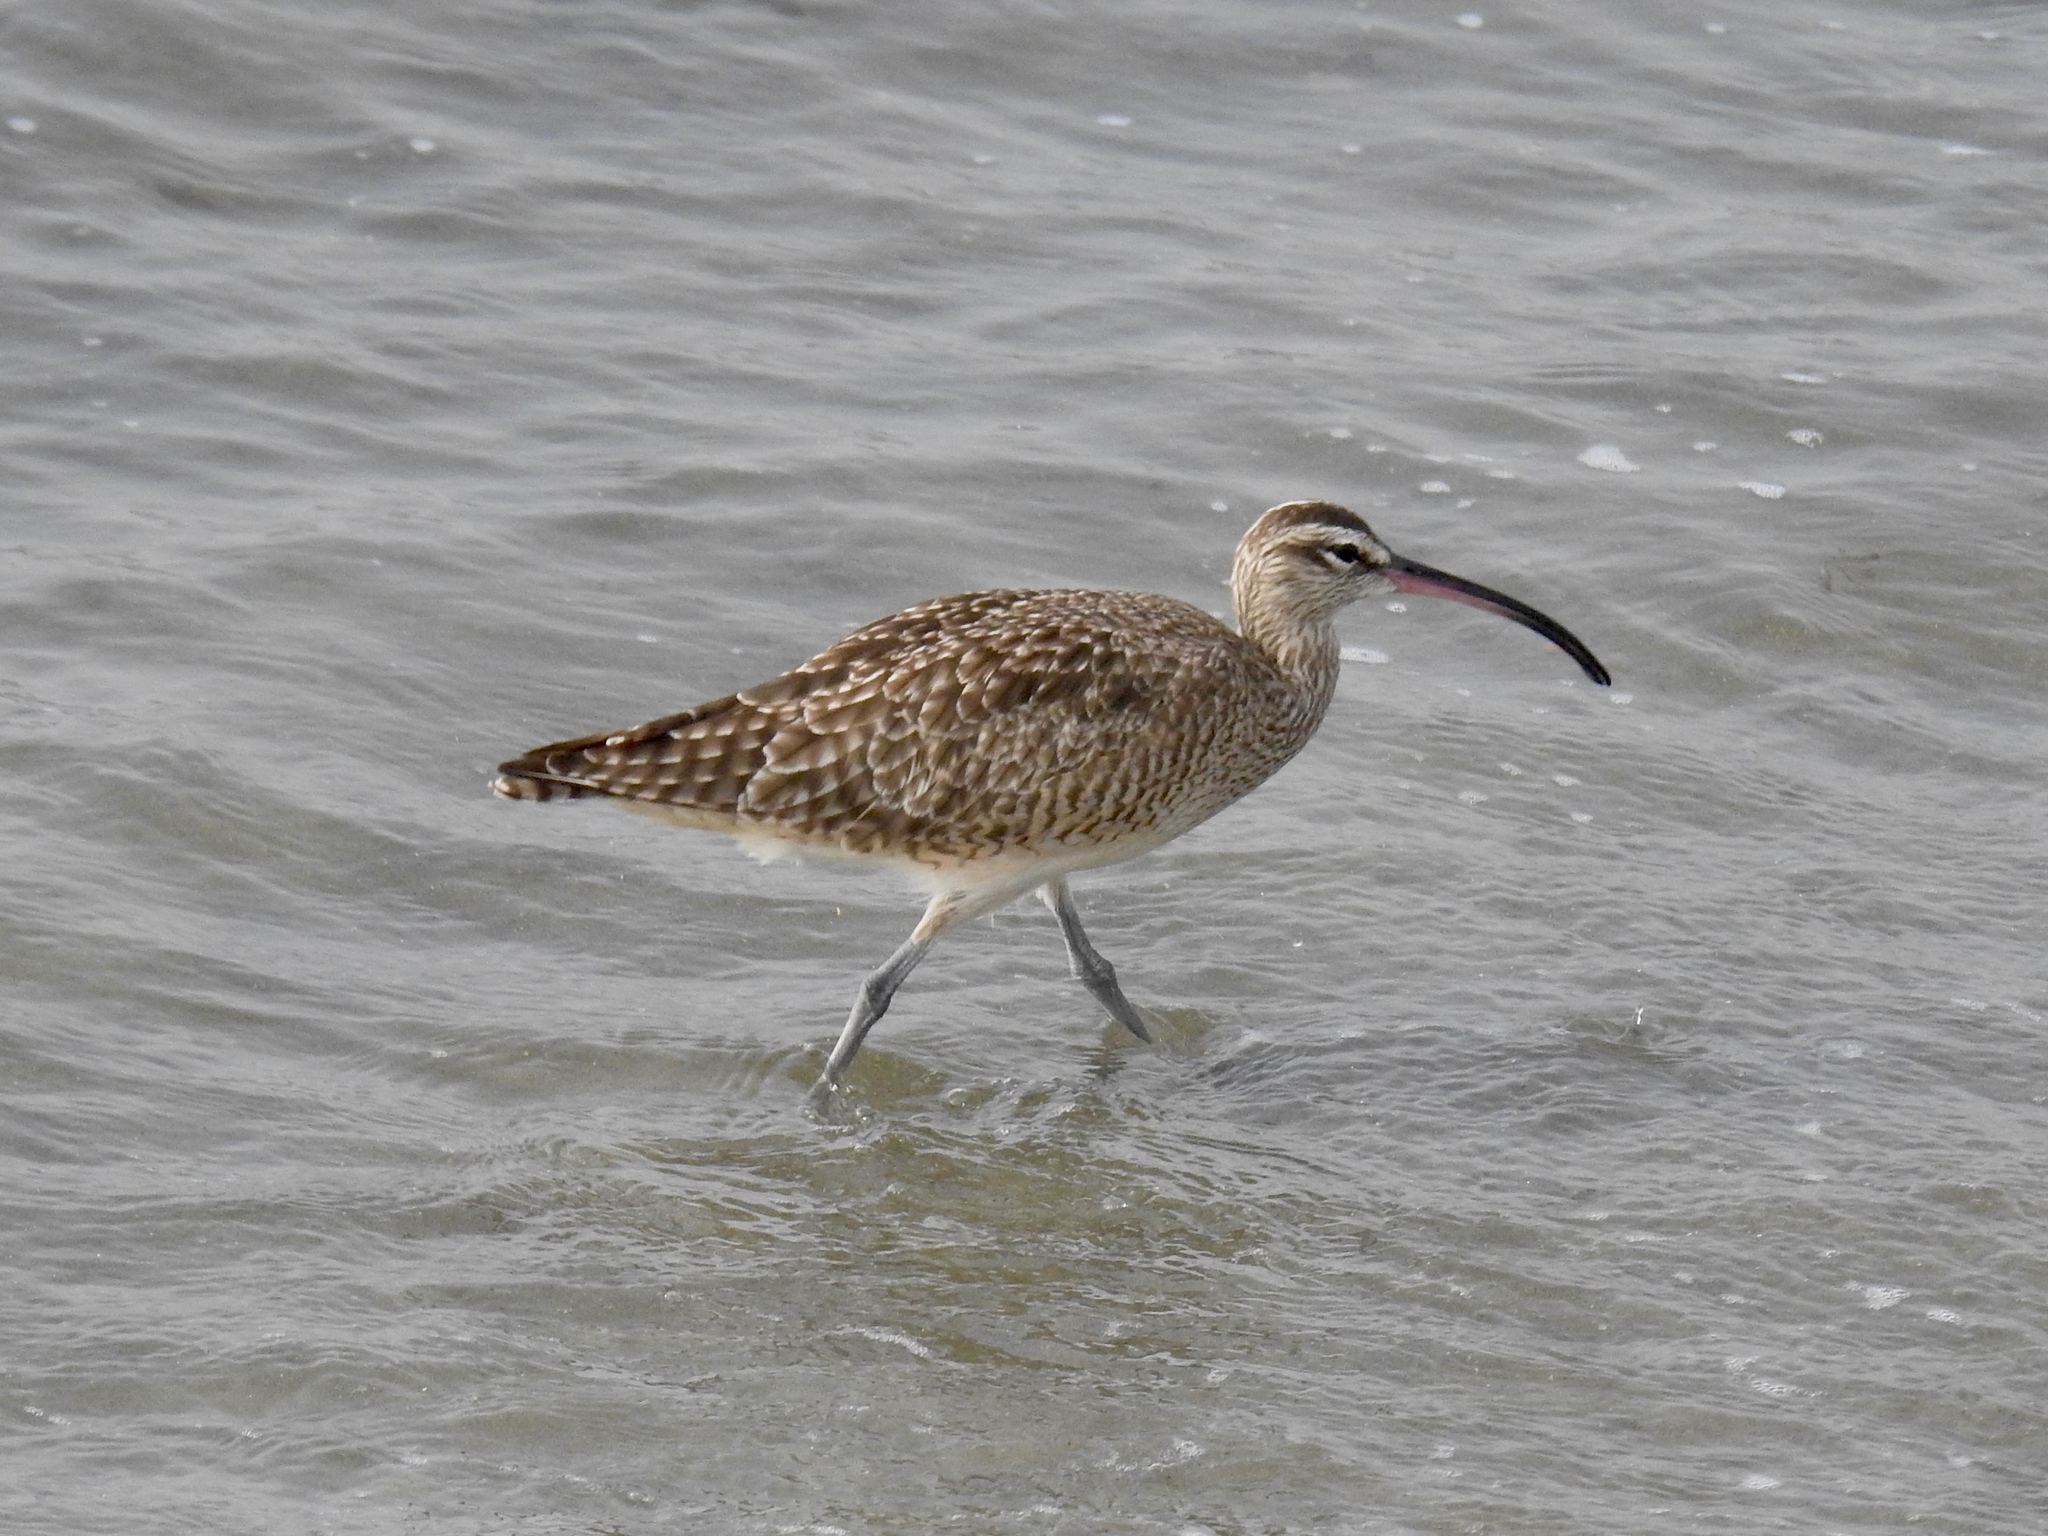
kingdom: Animalia
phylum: Chordata
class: Aves
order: Charadriiformes
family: Scolopacidae
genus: Numenius
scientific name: Numenius phaeopus
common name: Whimbrel
